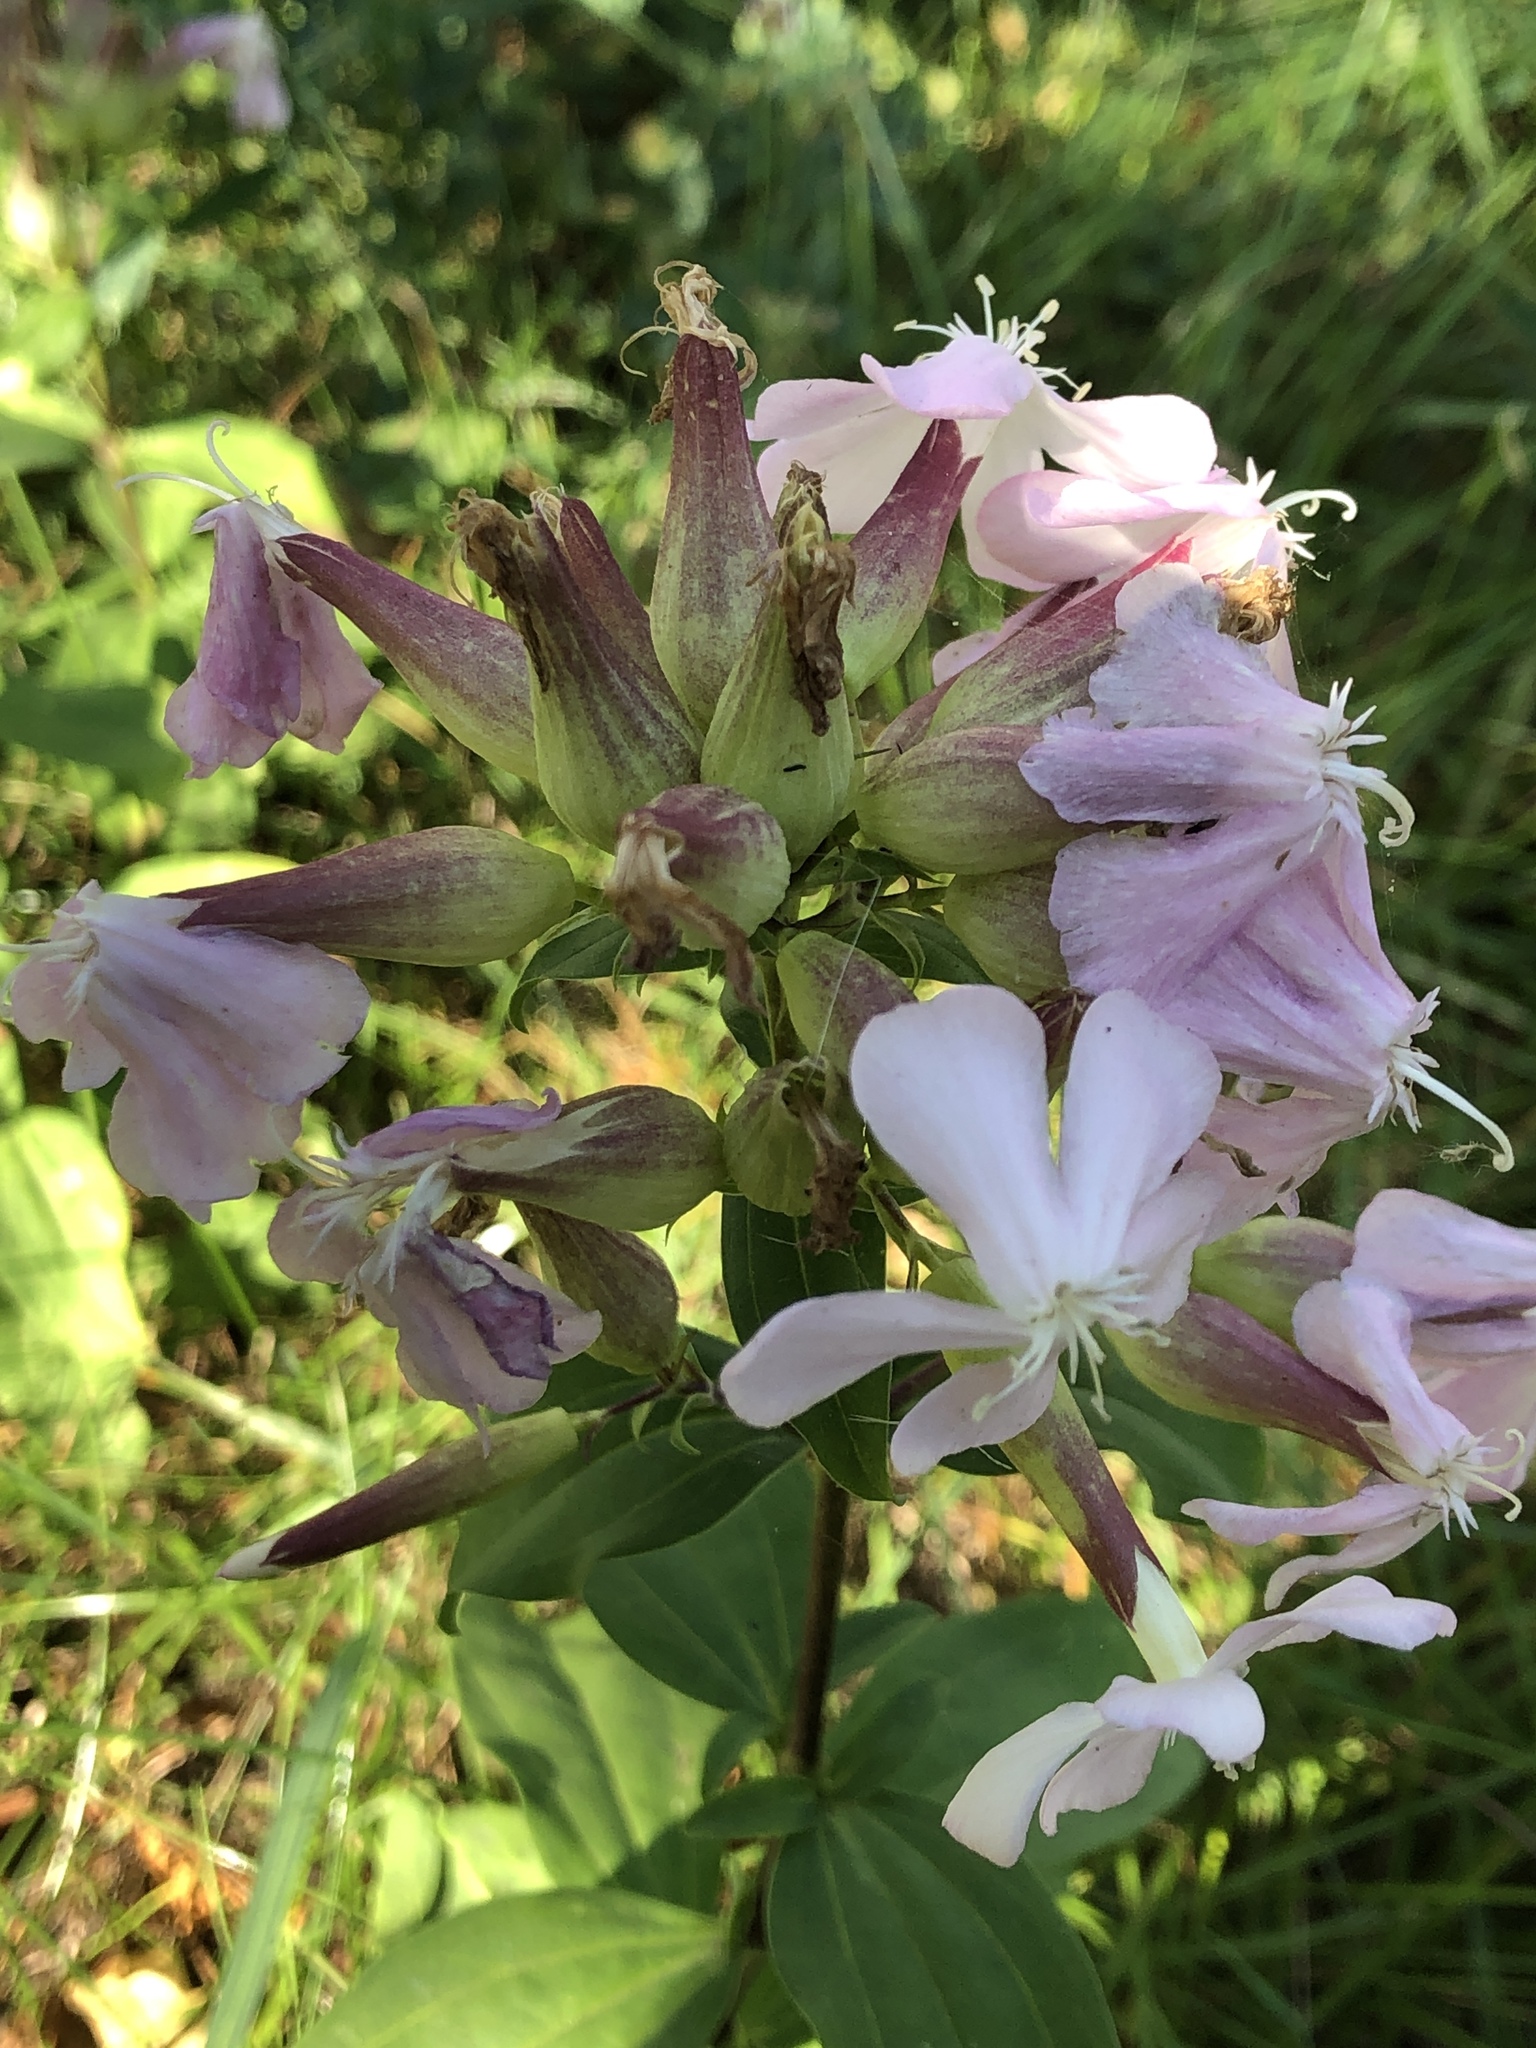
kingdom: Plantae
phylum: Tracheophyta
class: Magnoliopsida
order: Caryophyllales
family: Caryophyllaceae
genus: Saponaria
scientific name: Saponaria officinalis
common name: Soapwort
